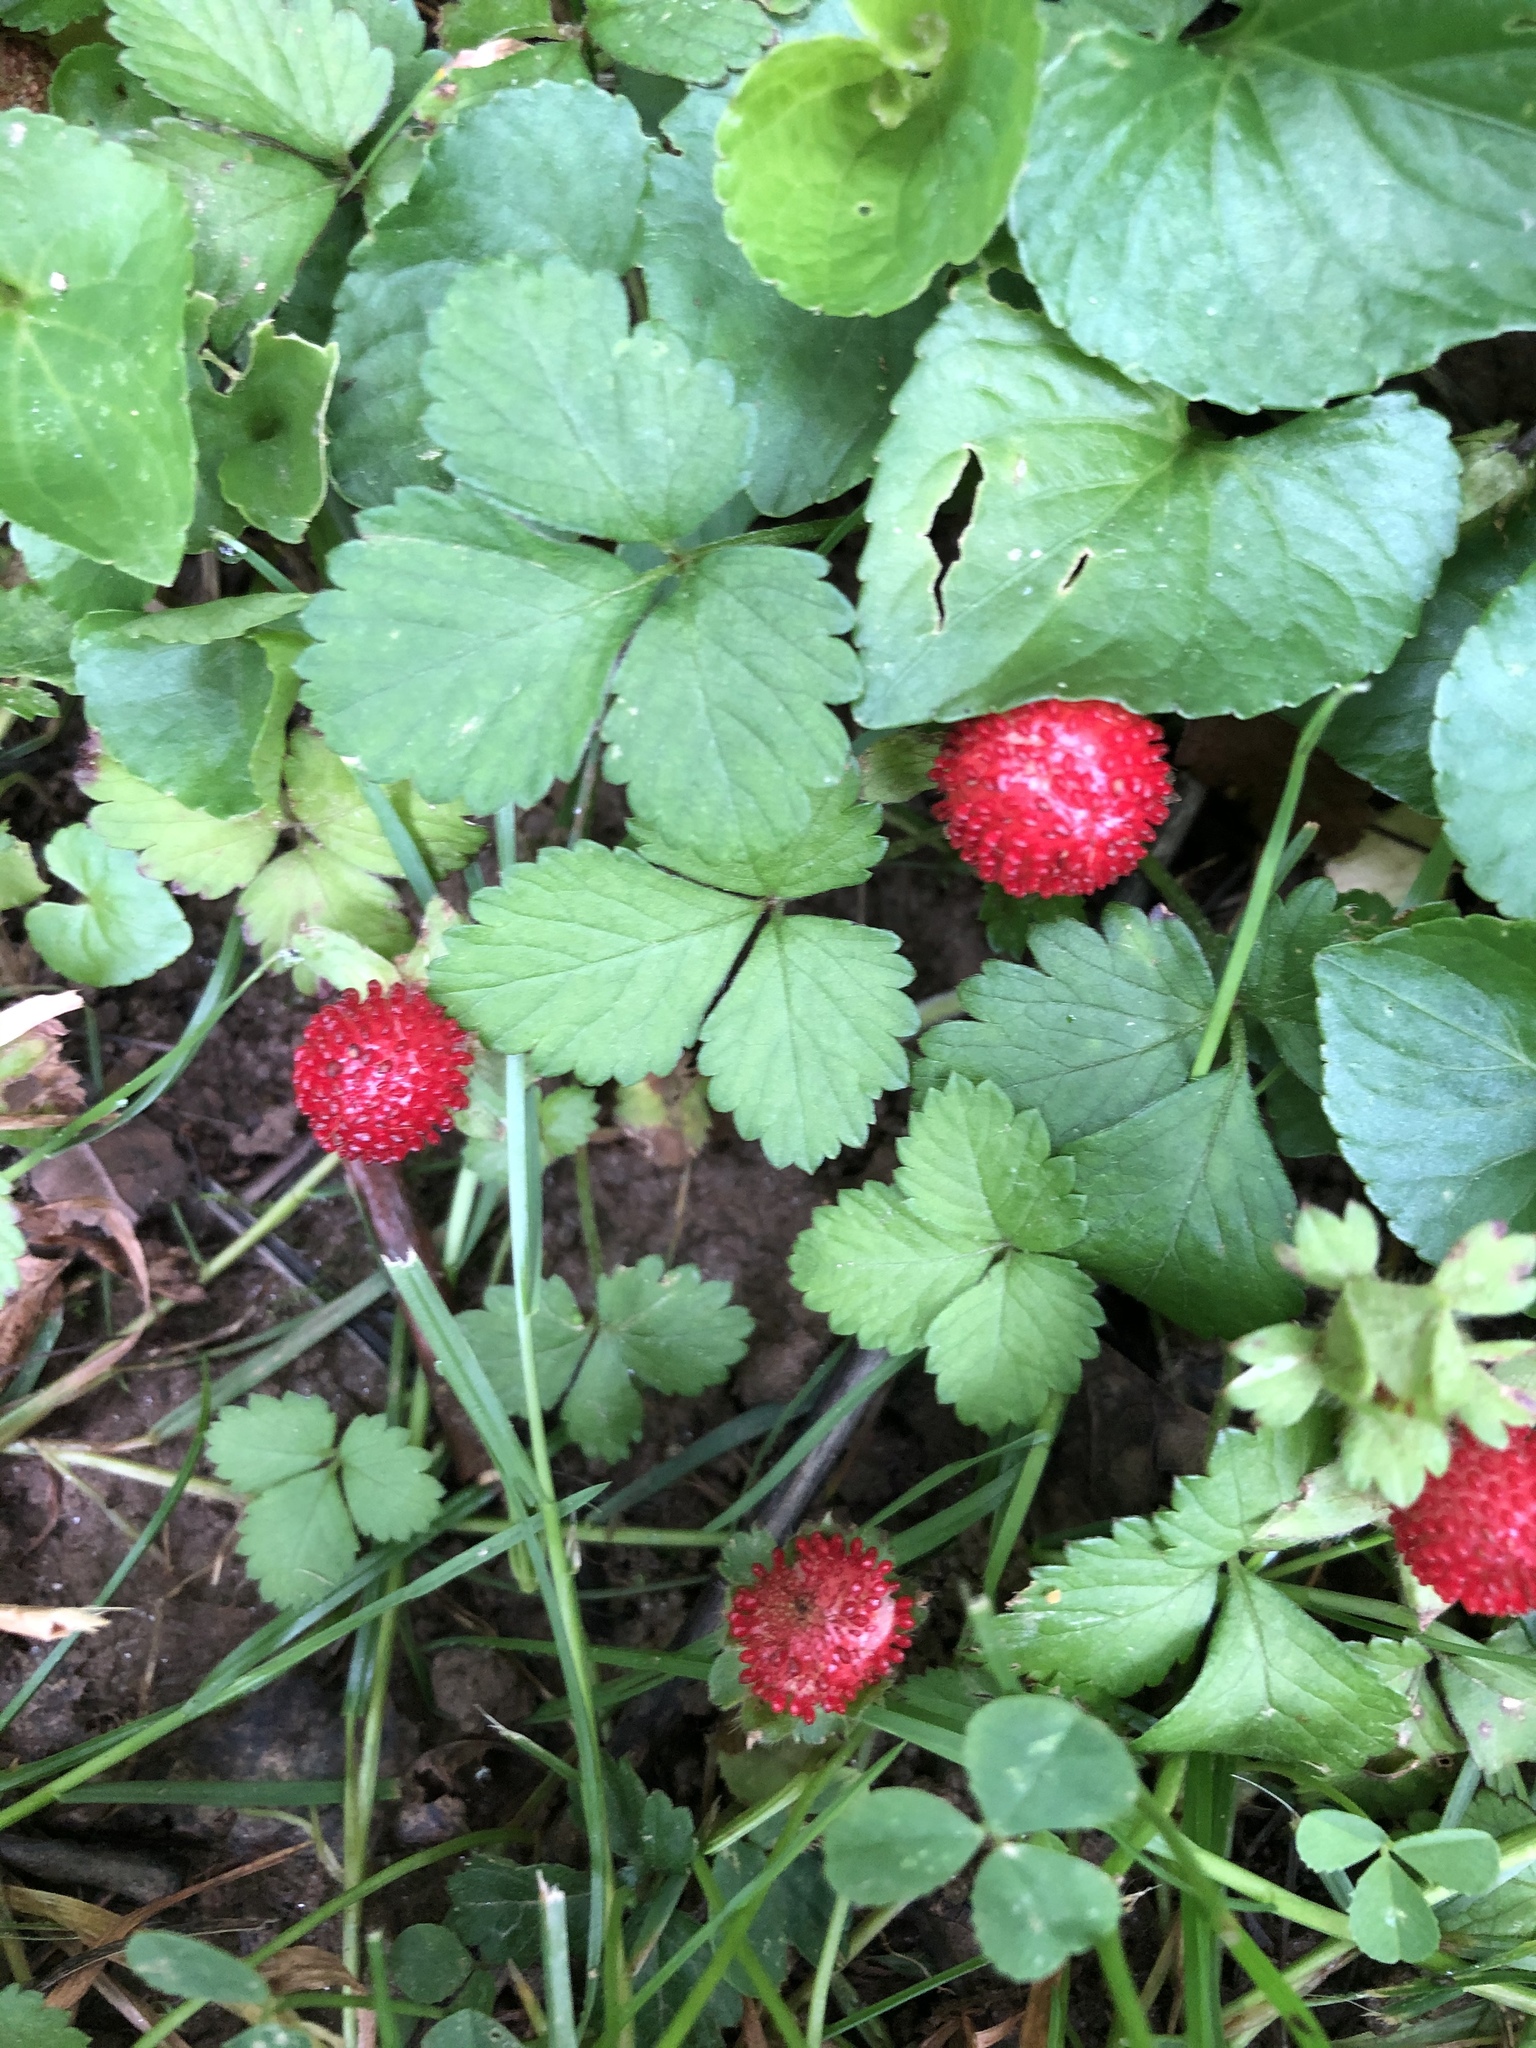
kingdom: Plantae
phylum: Tracheophyta
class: Magnoliopsida
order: Rosales
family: Rosaceae
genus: Potentilla
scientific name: Potentilla indica
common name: Yellow-flowered strawberry
